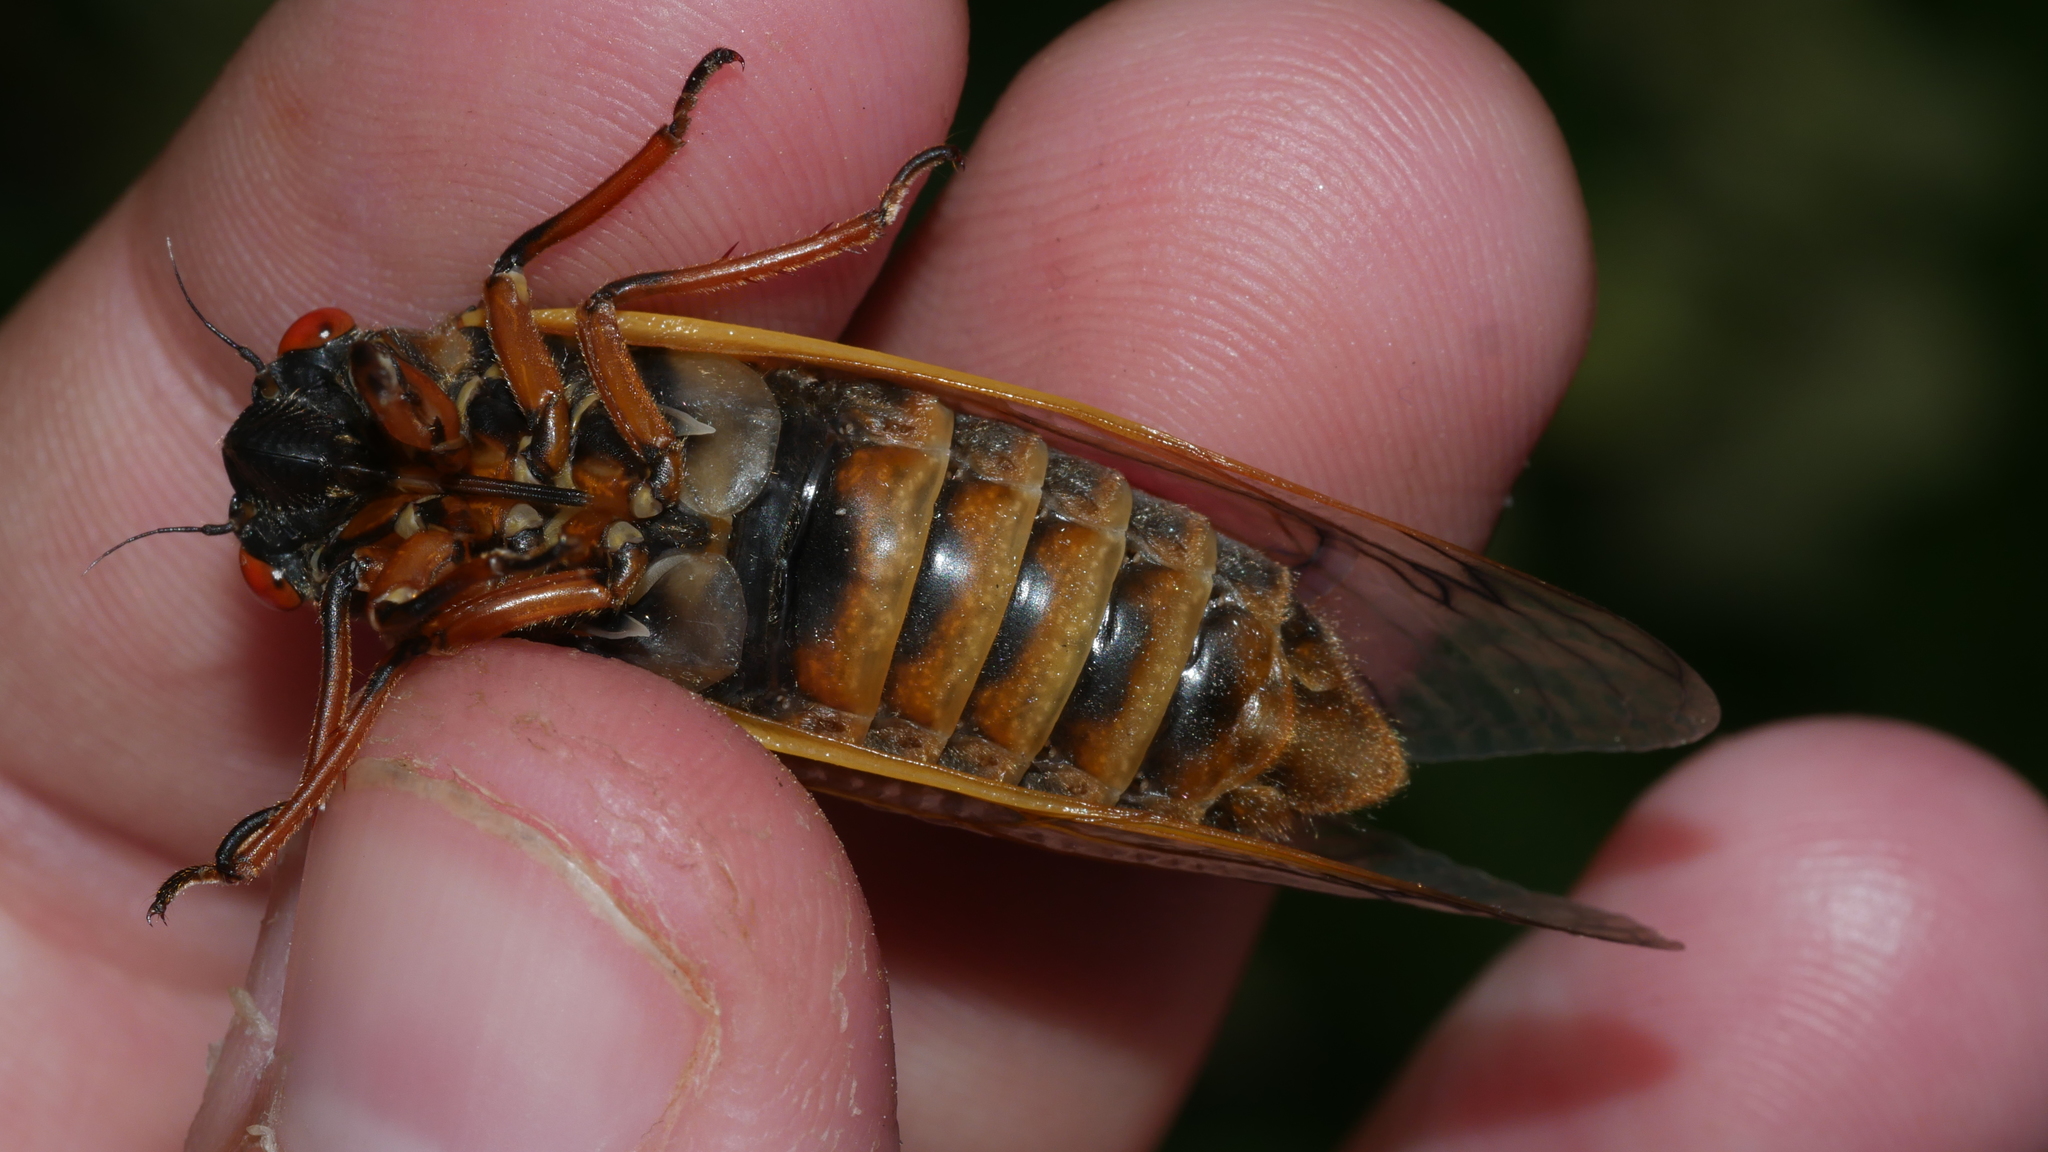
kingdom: Animalia
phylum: Arthropoda
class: Insecta
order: Hemiptera
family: Cicadidae
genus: Magicicada
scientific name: Magicicada septendecim
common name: Periodical cicada
